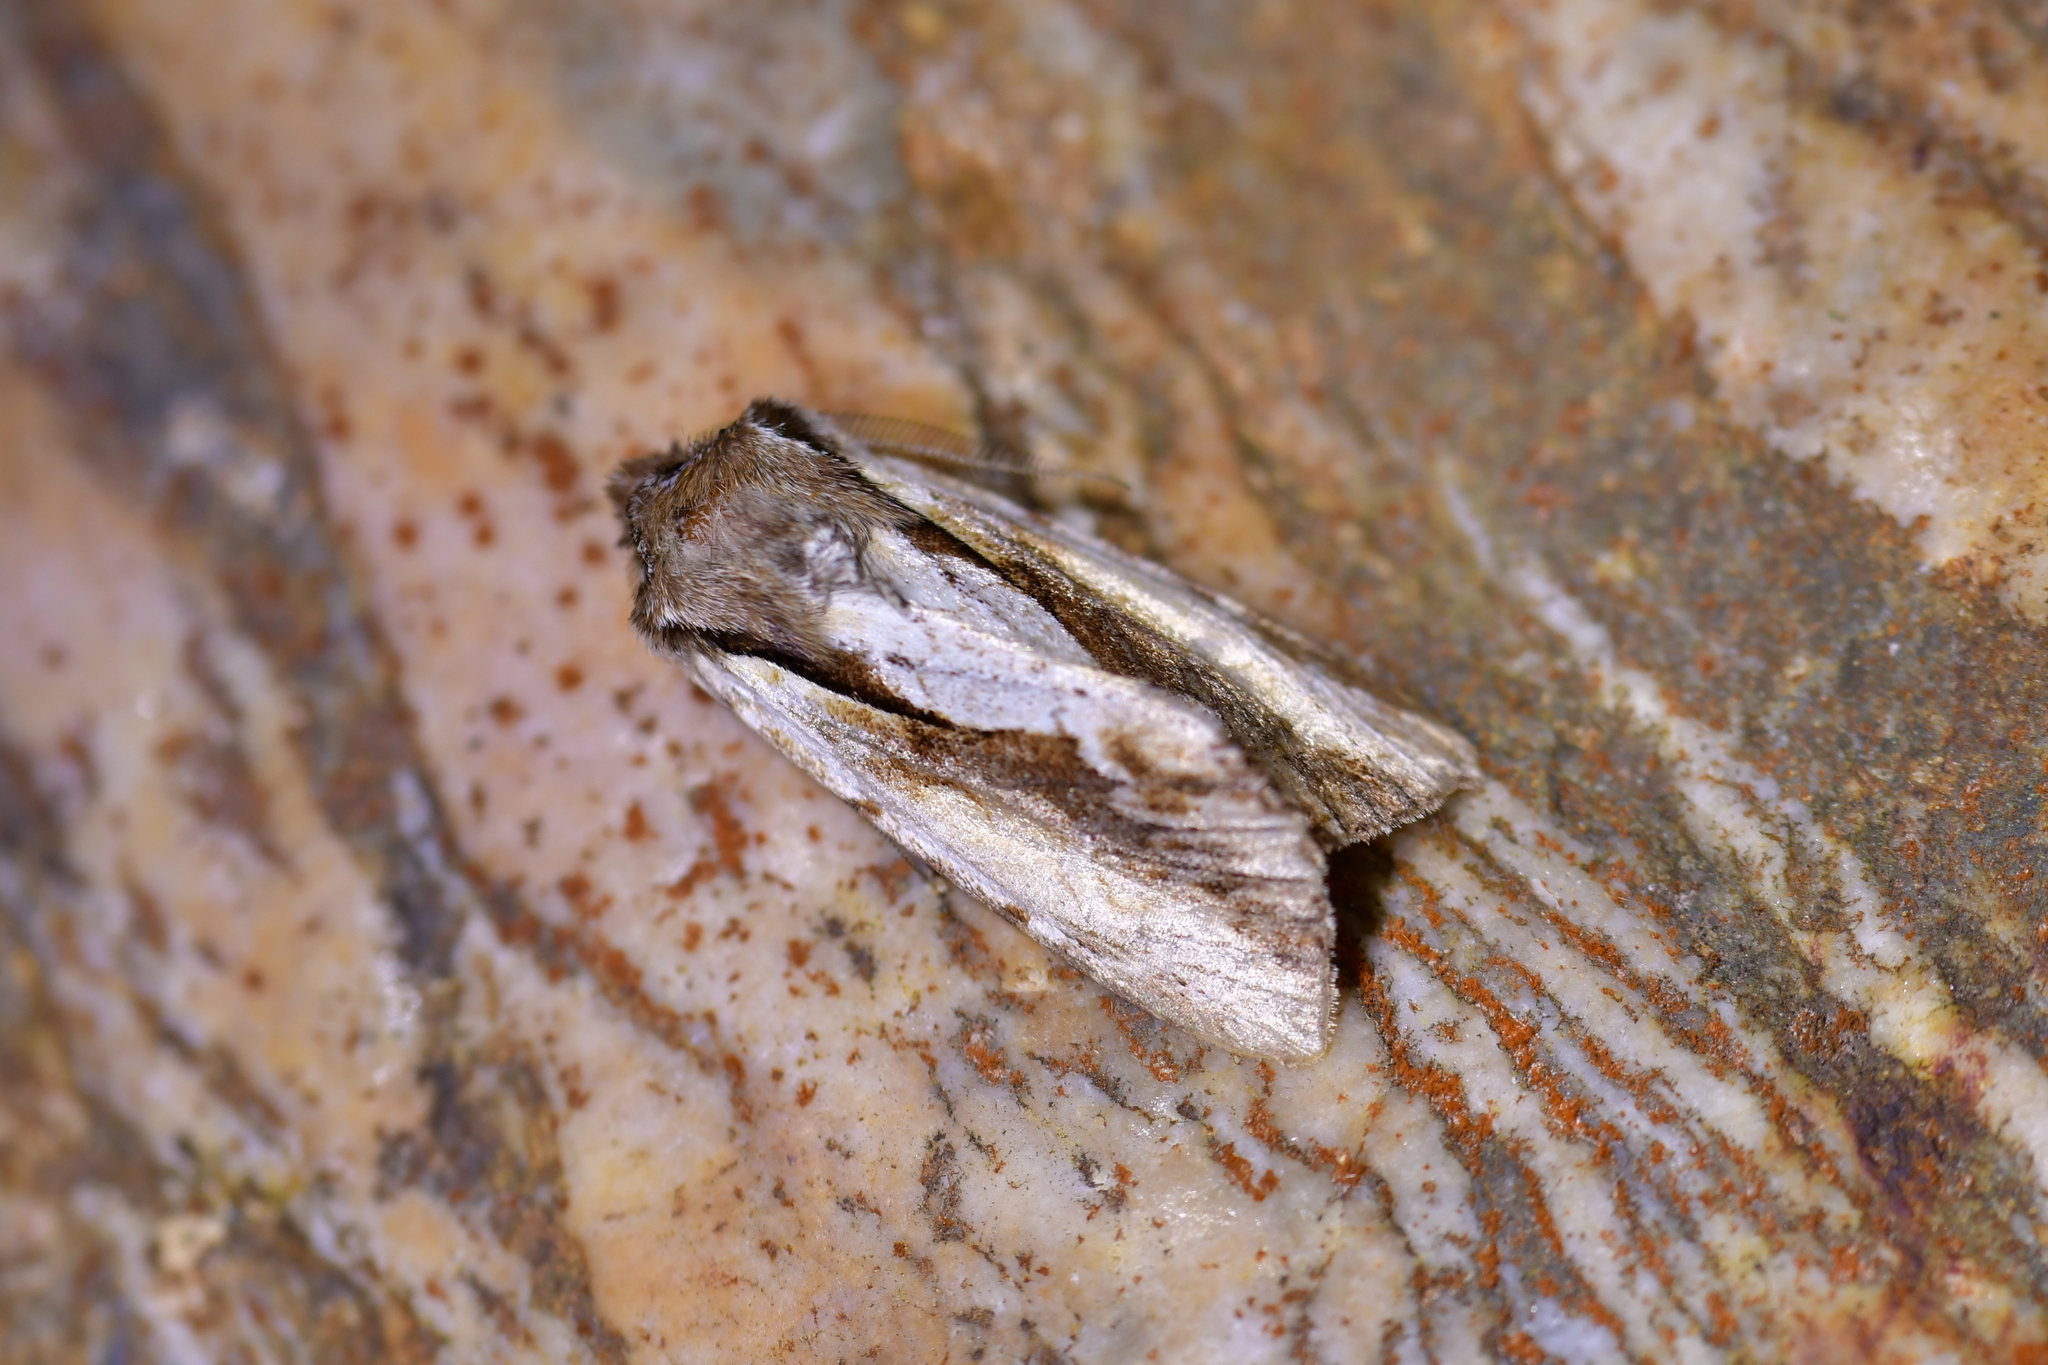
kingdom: Animalia
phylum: Arthropoda
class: Insecta
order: Lepidoptera
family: Noctuidae
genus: Ichneutica
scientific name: Ichneutica
